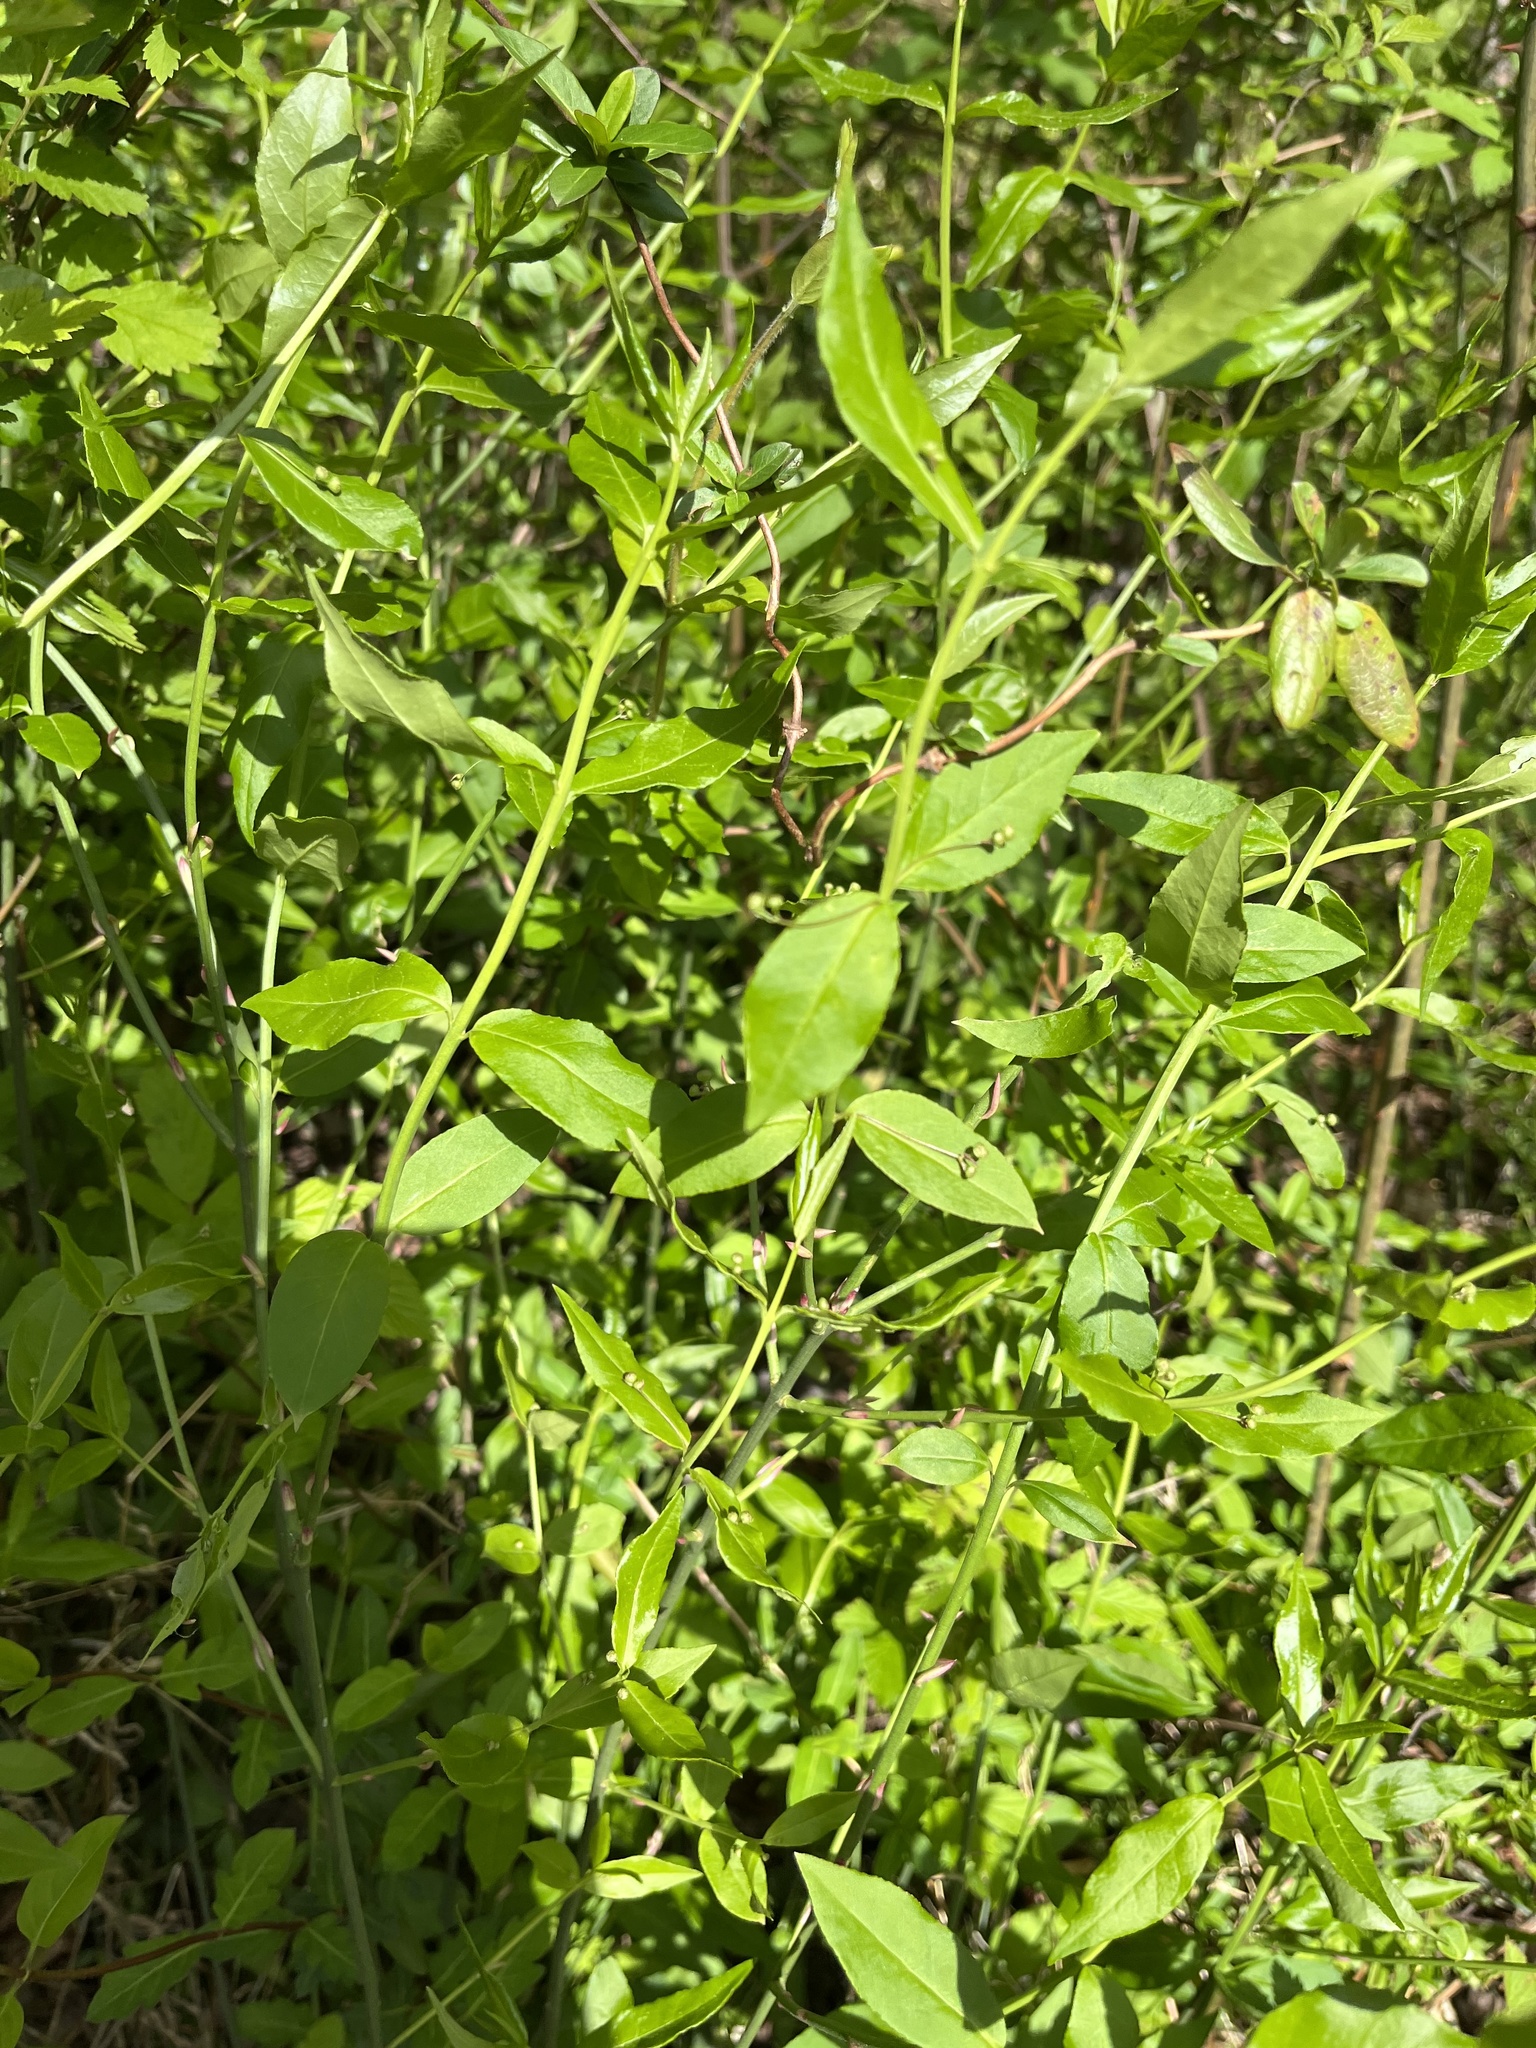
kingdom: Plantae
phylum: Tracheophyta
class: Magnoliopsida
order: Celastrales
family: Celastraceae
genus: Euonymus
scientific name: Euonymus americanus
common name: Bursting-heart
